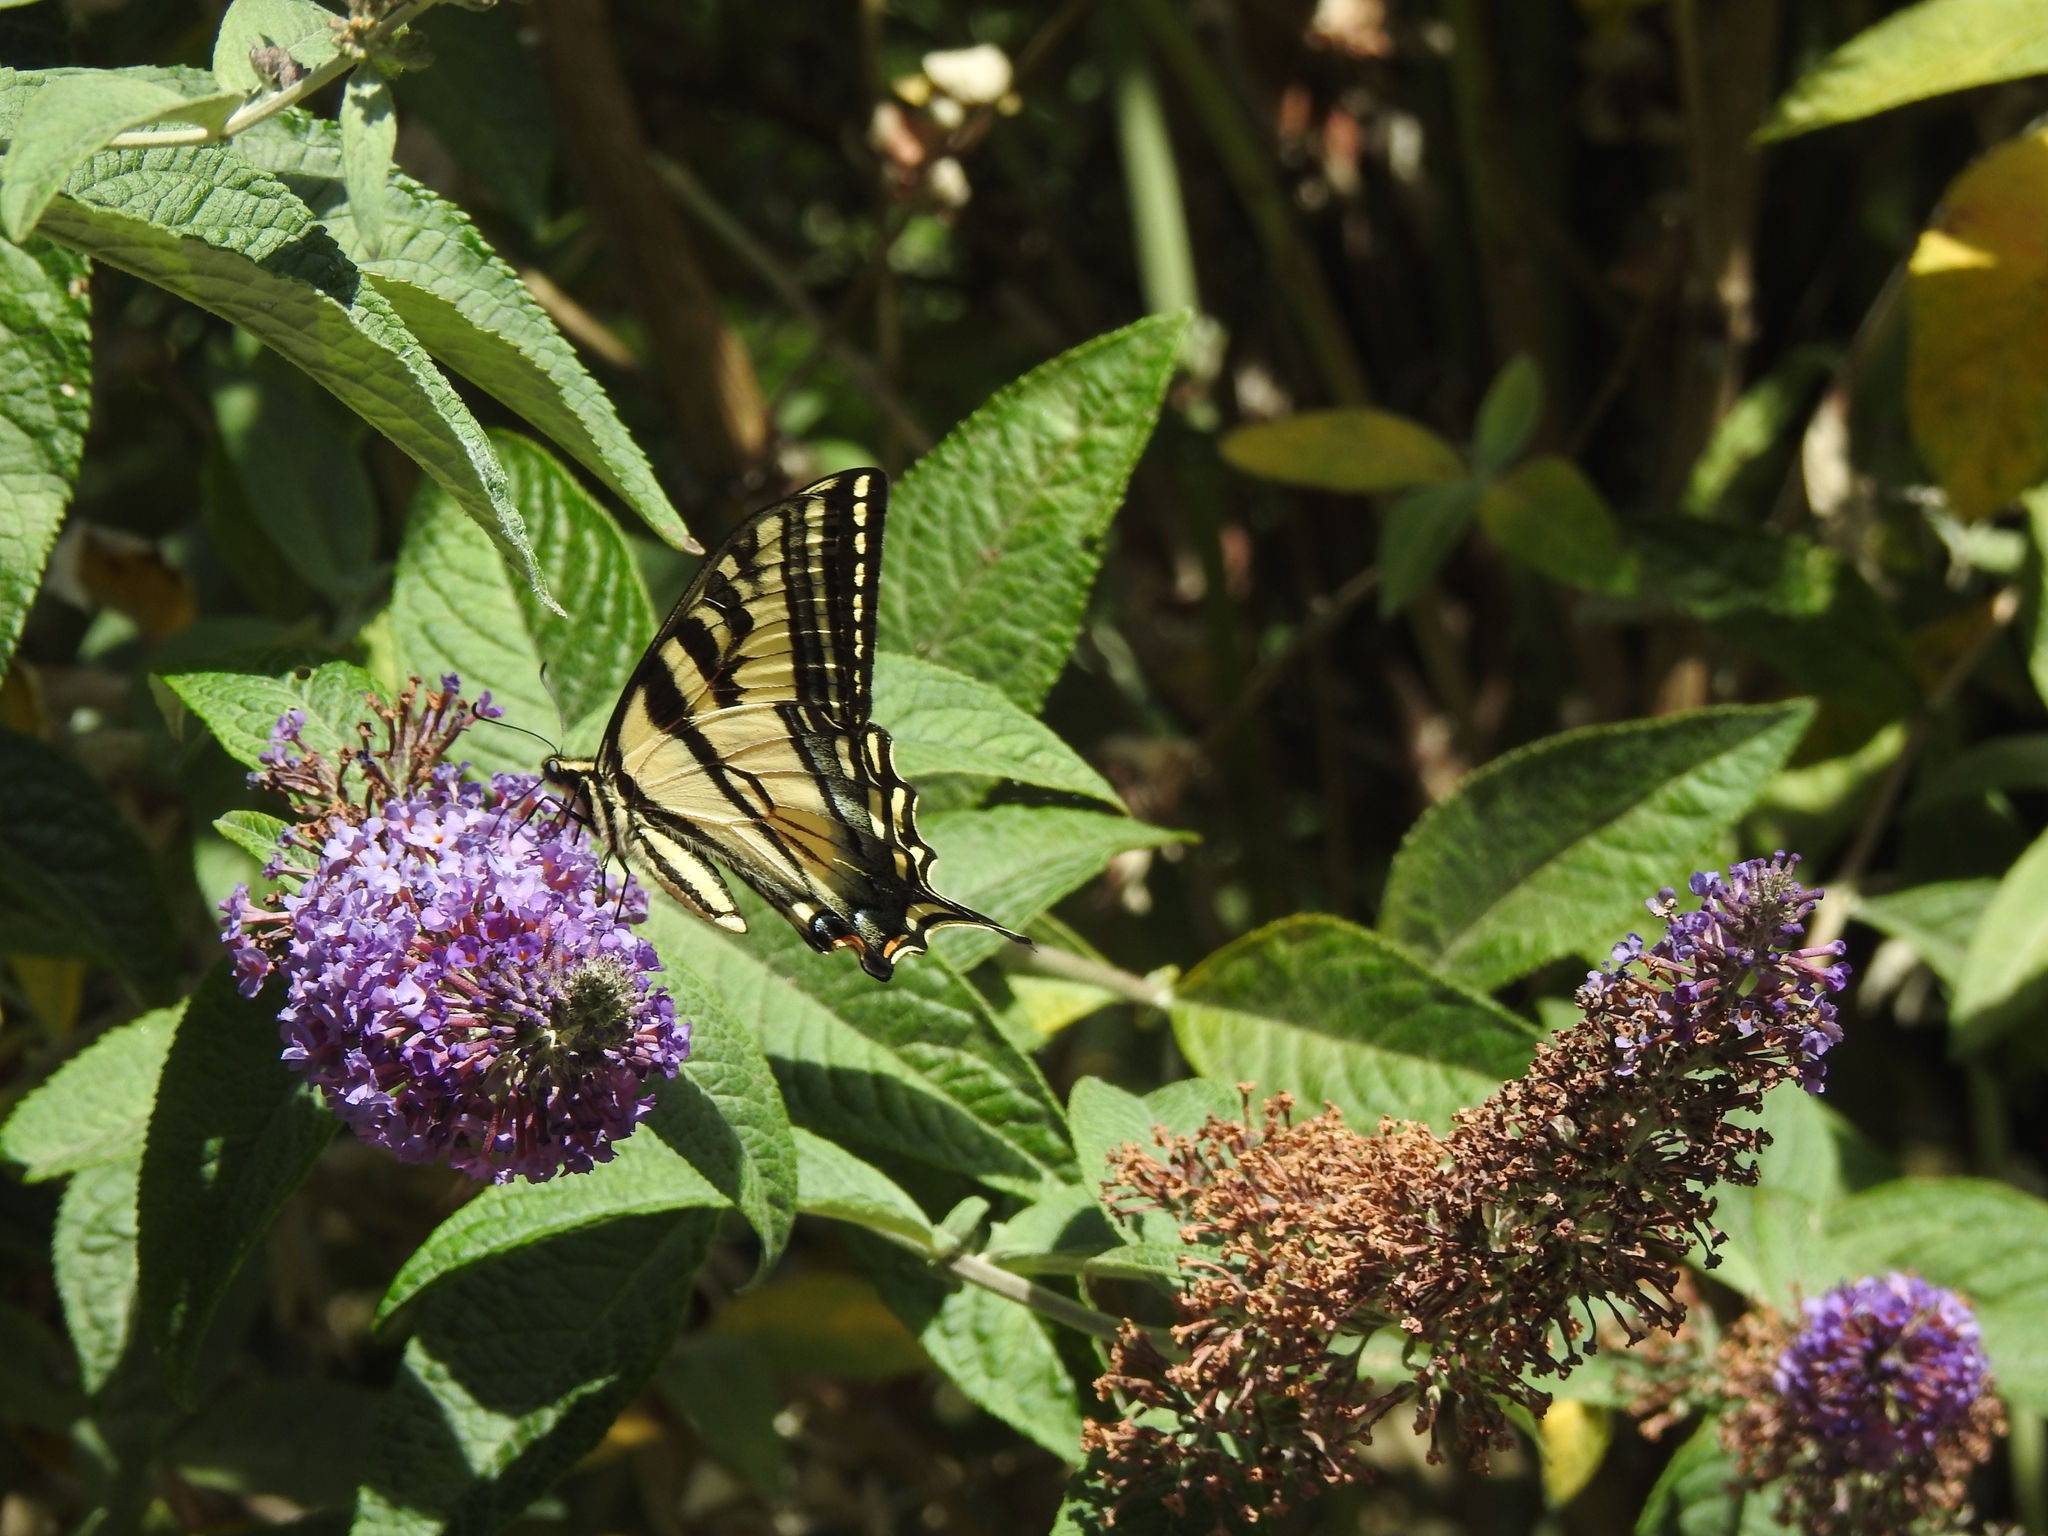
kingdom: Animalia
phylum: Arthropoda
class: Insecta
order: Lepidoptera
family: Papilionidae
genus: Papilio
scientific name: Papilio rutulus
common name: Western tiger swallowtail
